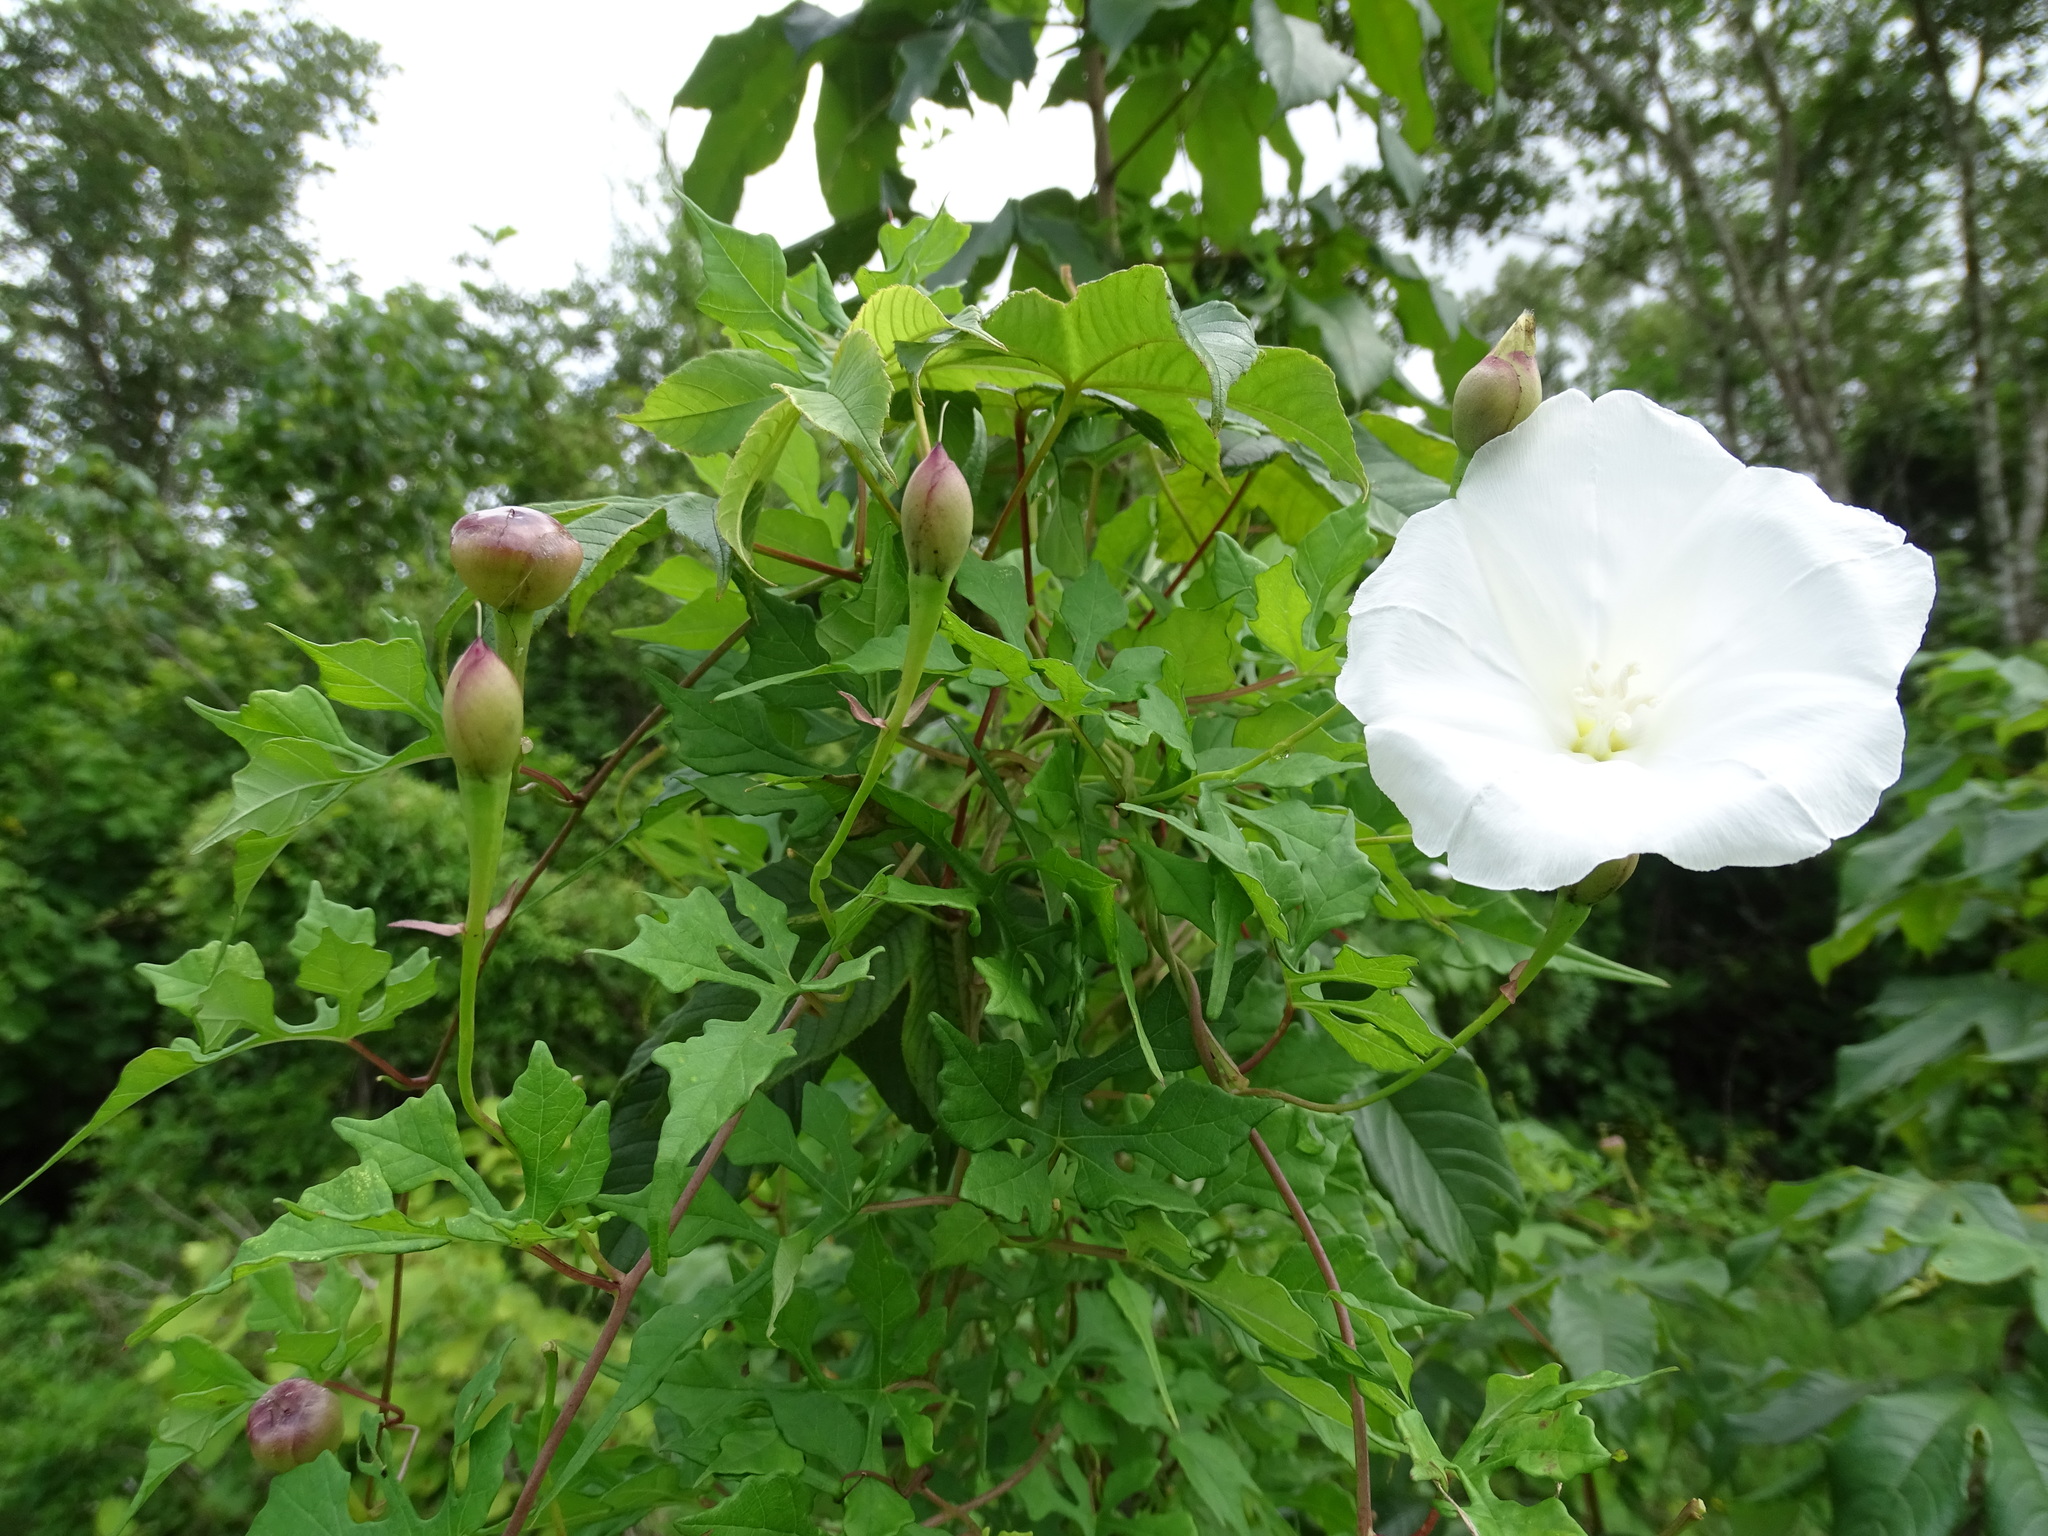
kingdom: Plantae
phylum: Tracheophyta
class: Magnoliopsida
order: Solanales
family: Convolvulaceae
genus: Operculina
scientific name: Operculina pinnatifida
